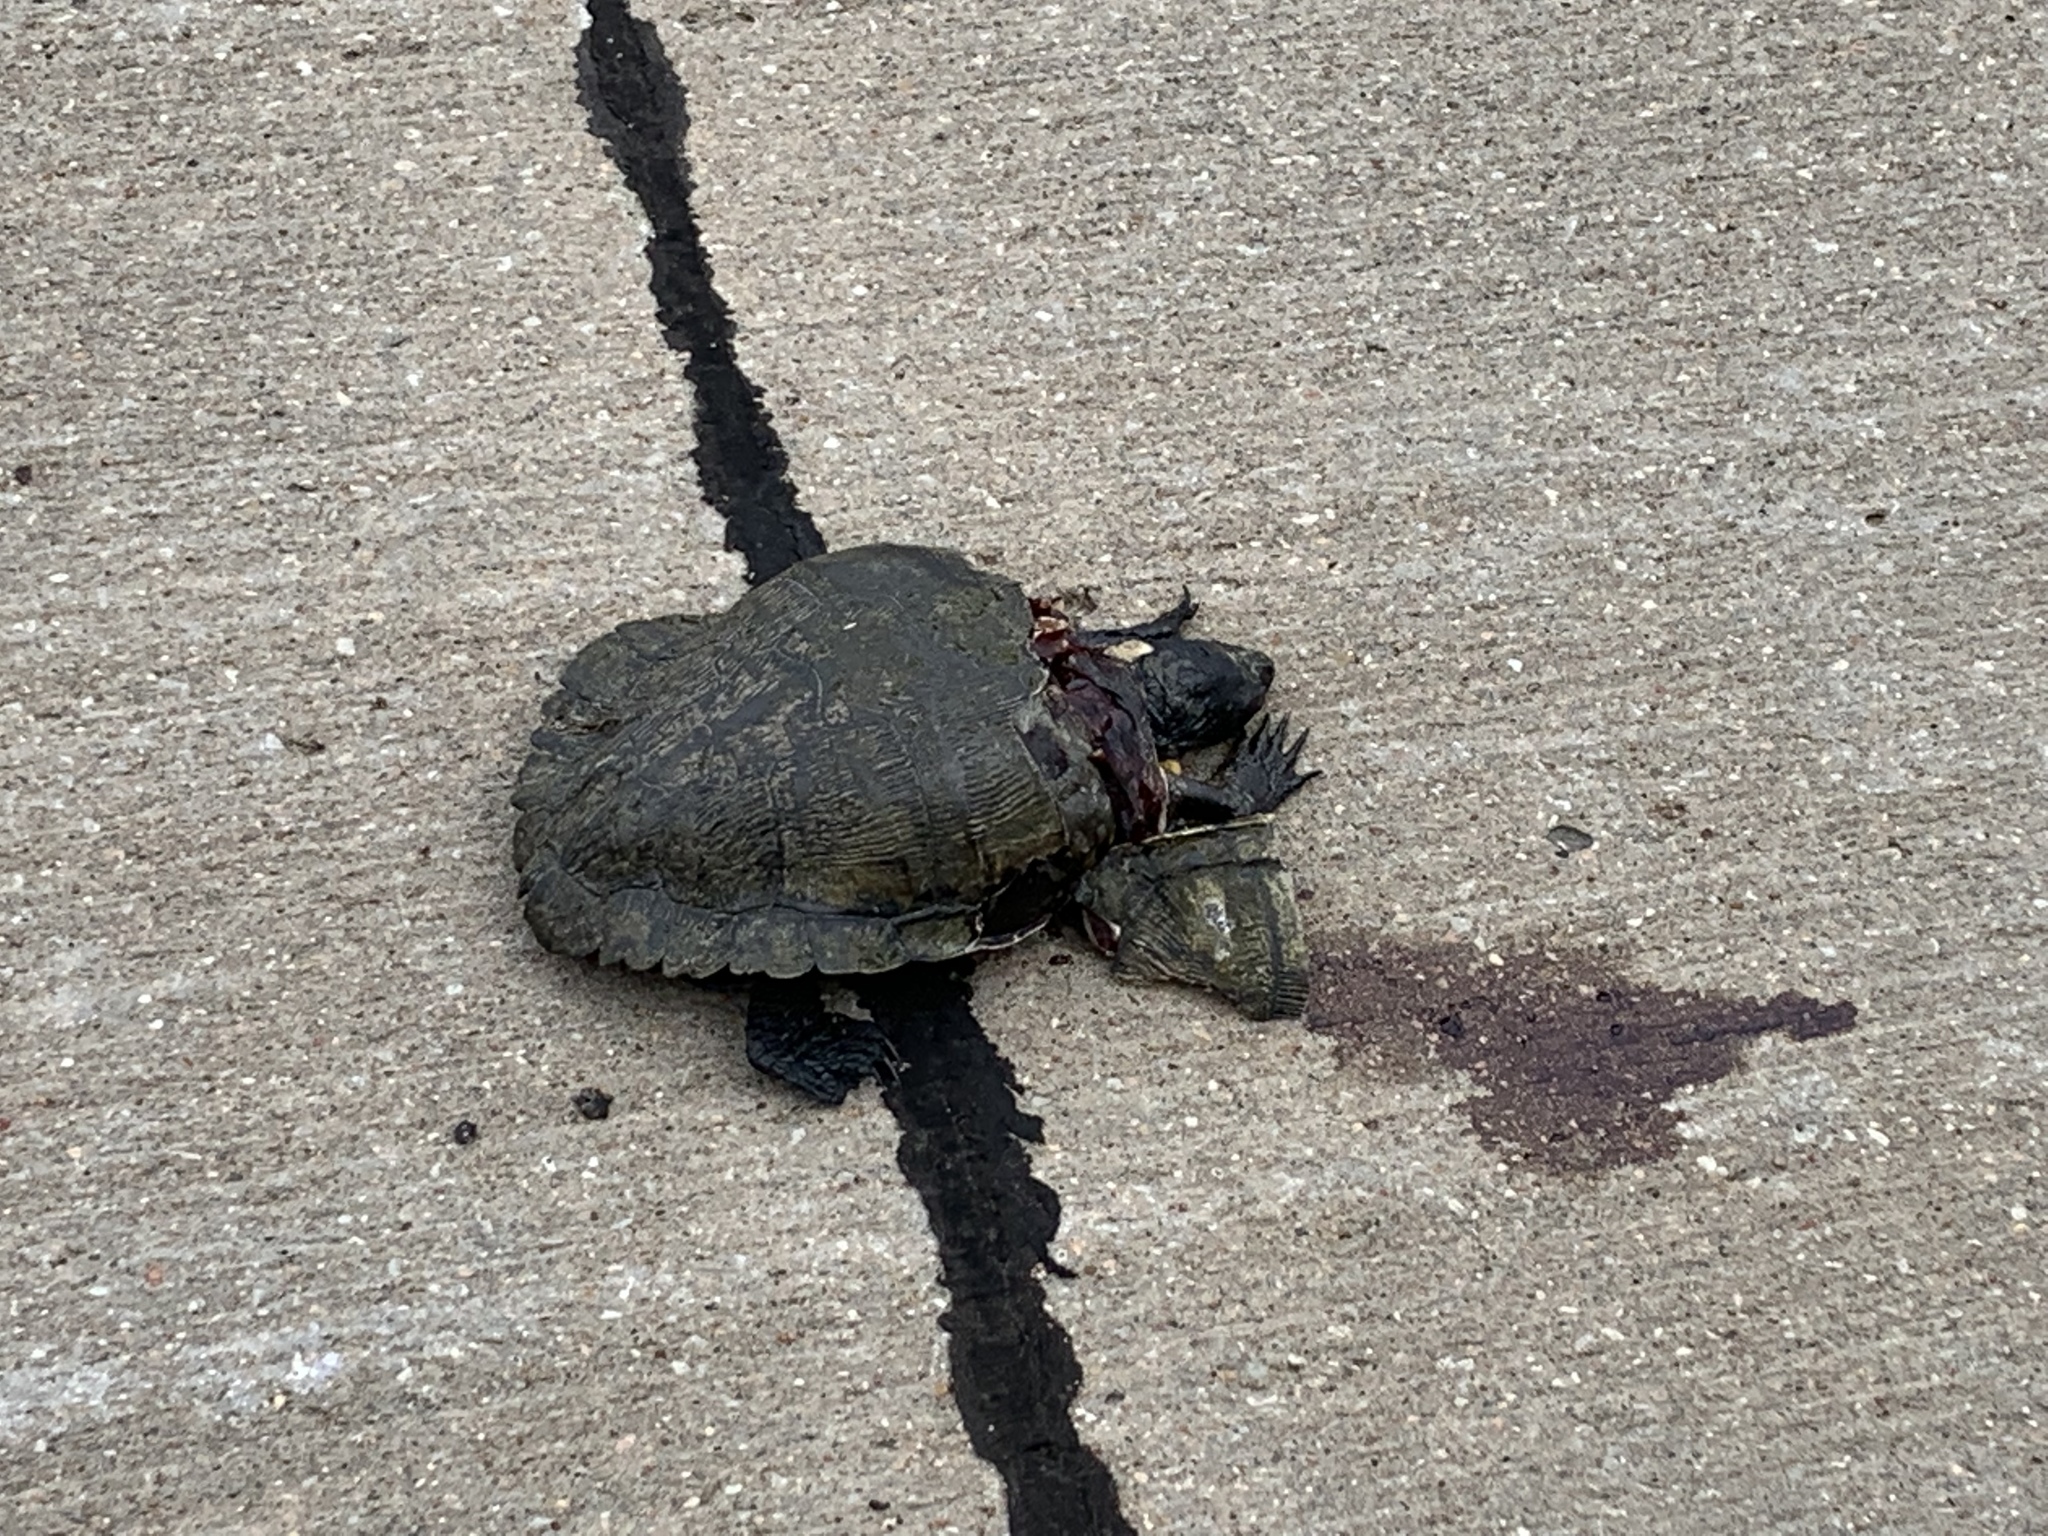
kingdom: Animalia
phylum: Chordata
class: Testudines
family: Emydidae
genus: Trachemys
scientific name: Trachemys scripta
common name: Slider
